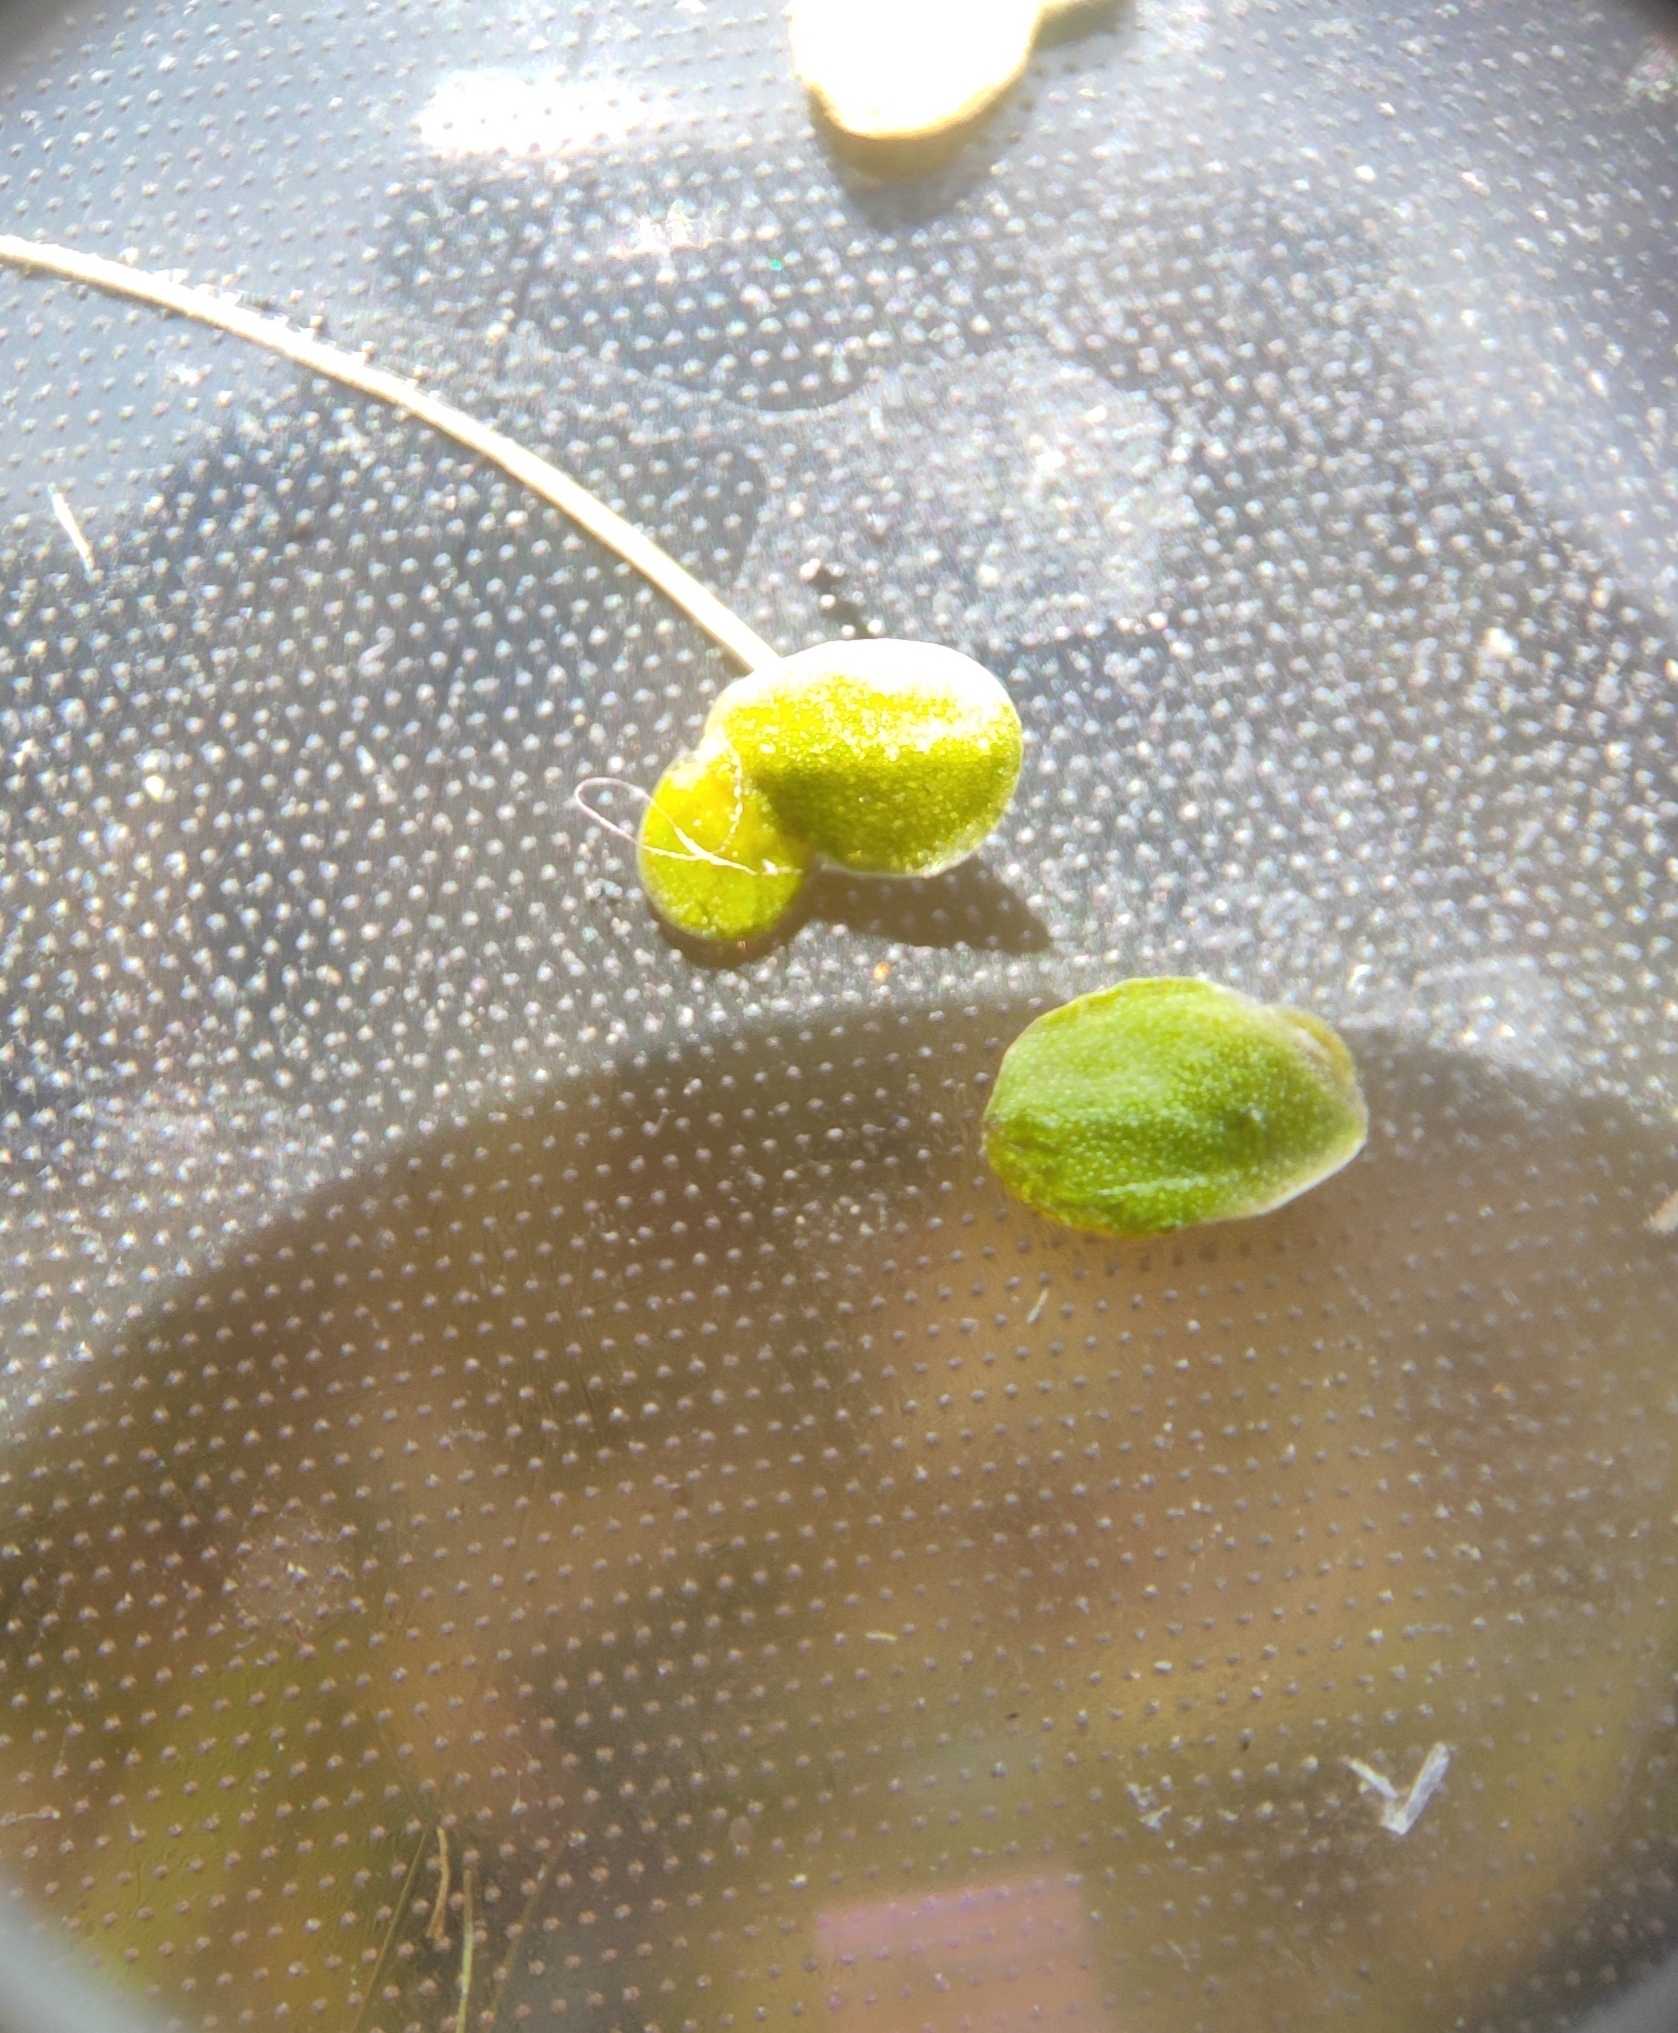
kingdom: Plantae
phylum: Tracheophyta
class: Liliopsida
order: Alismatales
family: Araceae
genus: Lemna
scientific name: Lemna minor
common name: Common duckweed
